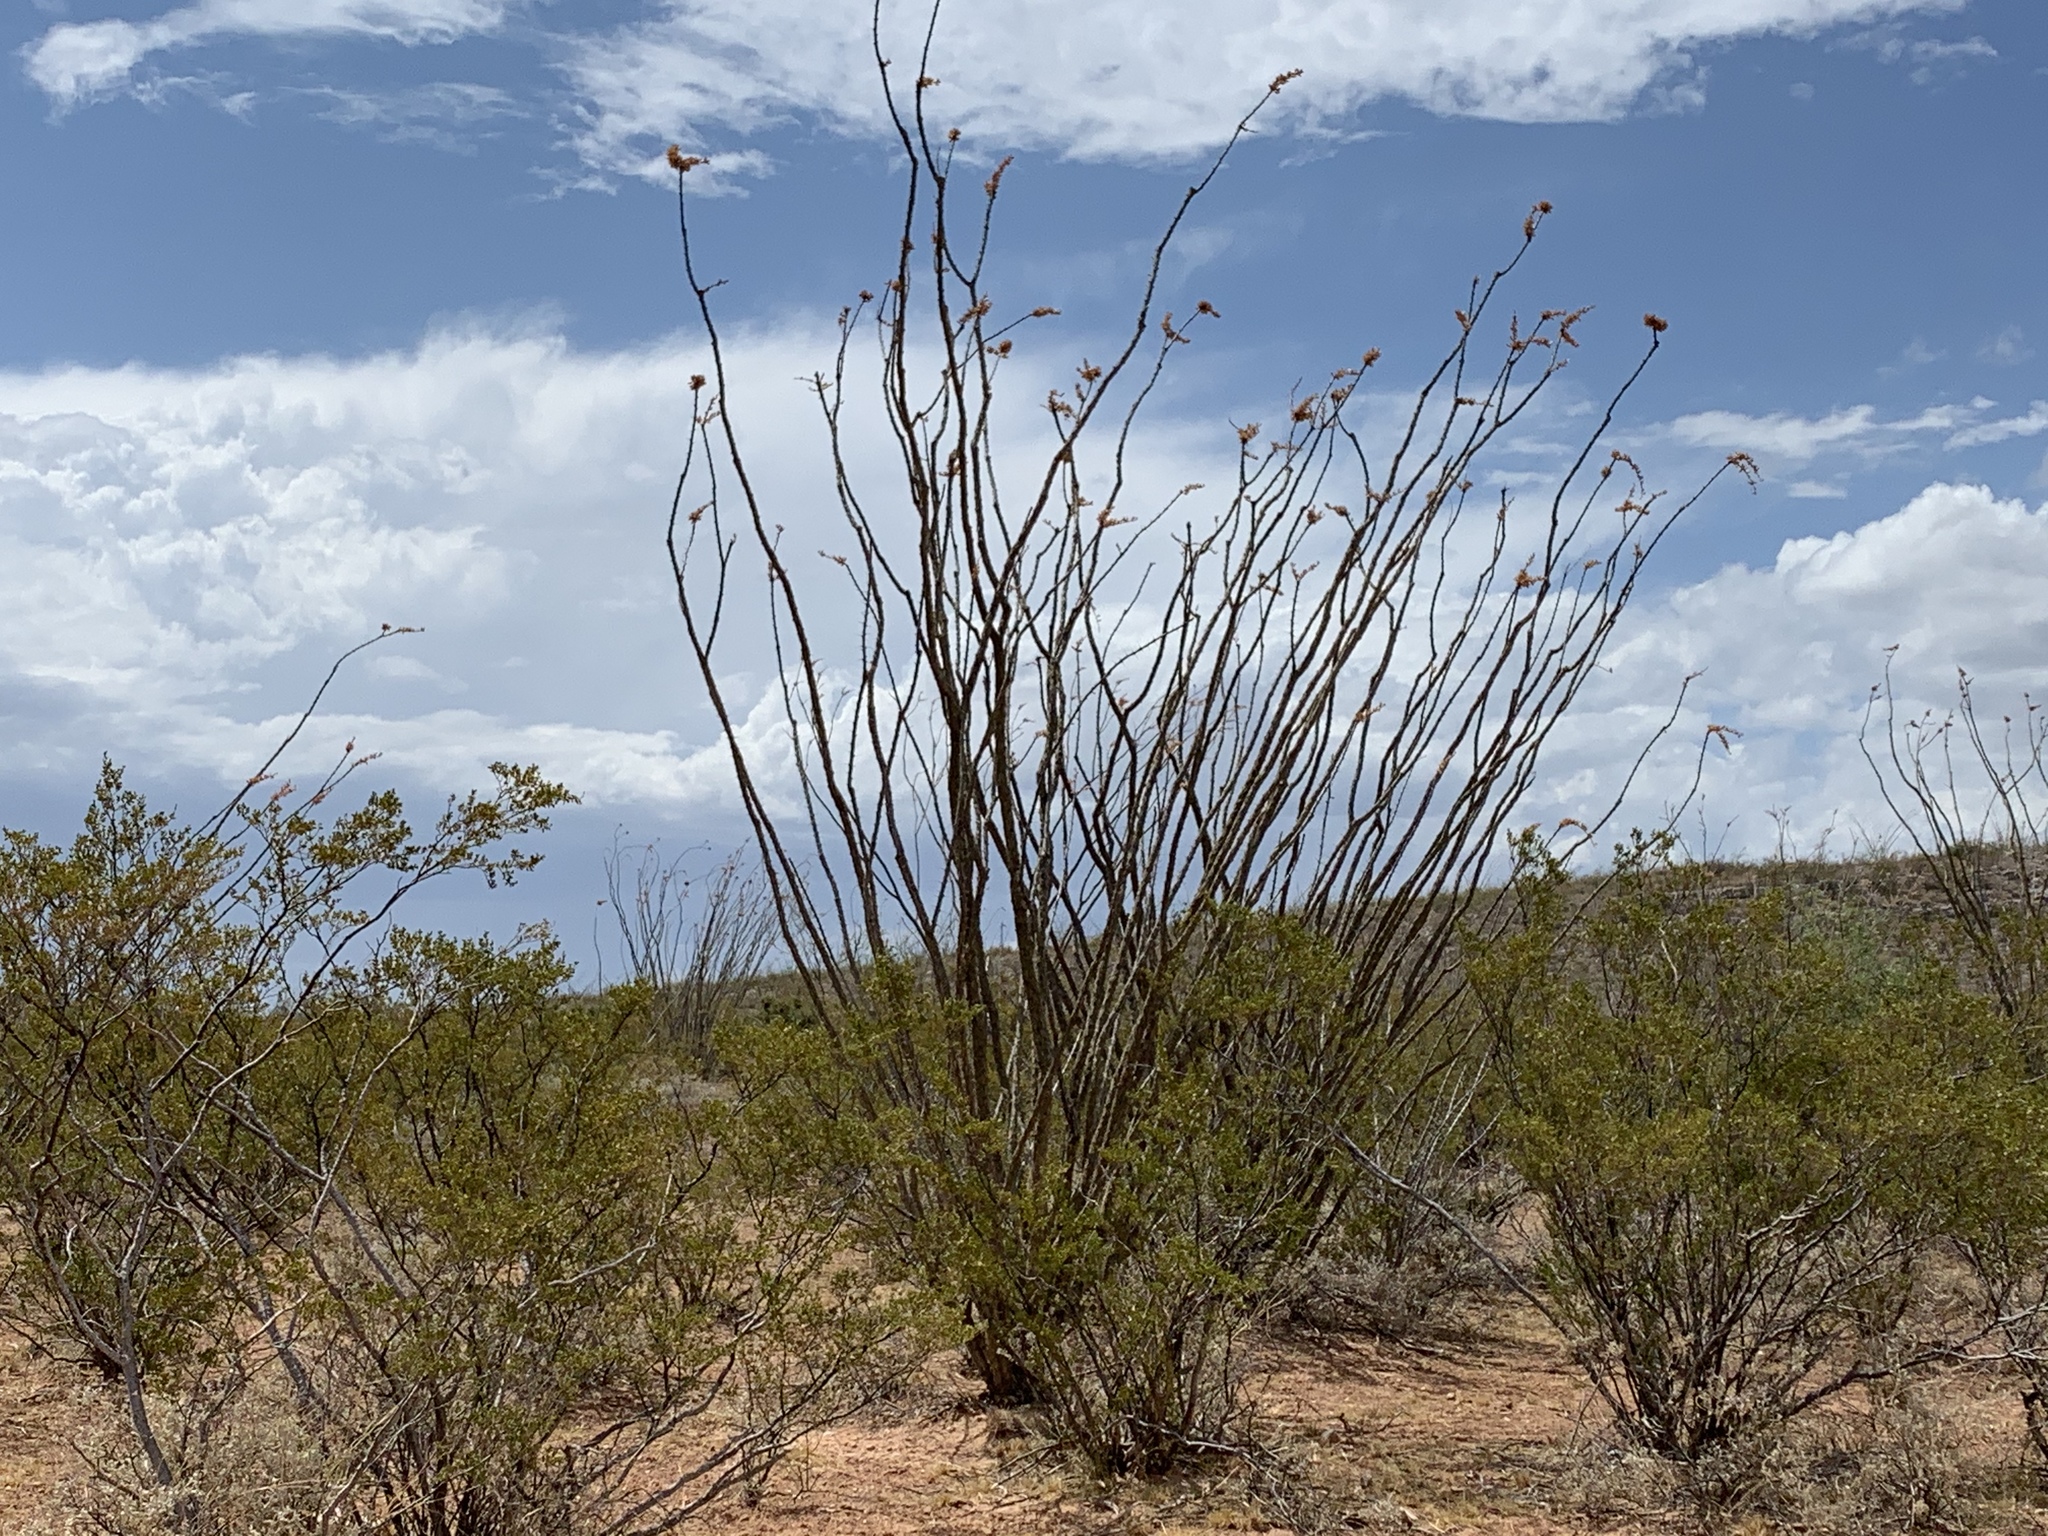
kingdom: Plantae
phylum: Tracheophyta
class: Magnoliopsida
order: Ericales
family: Fouquieriaceae
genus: Fouquieria
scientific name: Fouquieria splendens
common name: Vine-cactus
